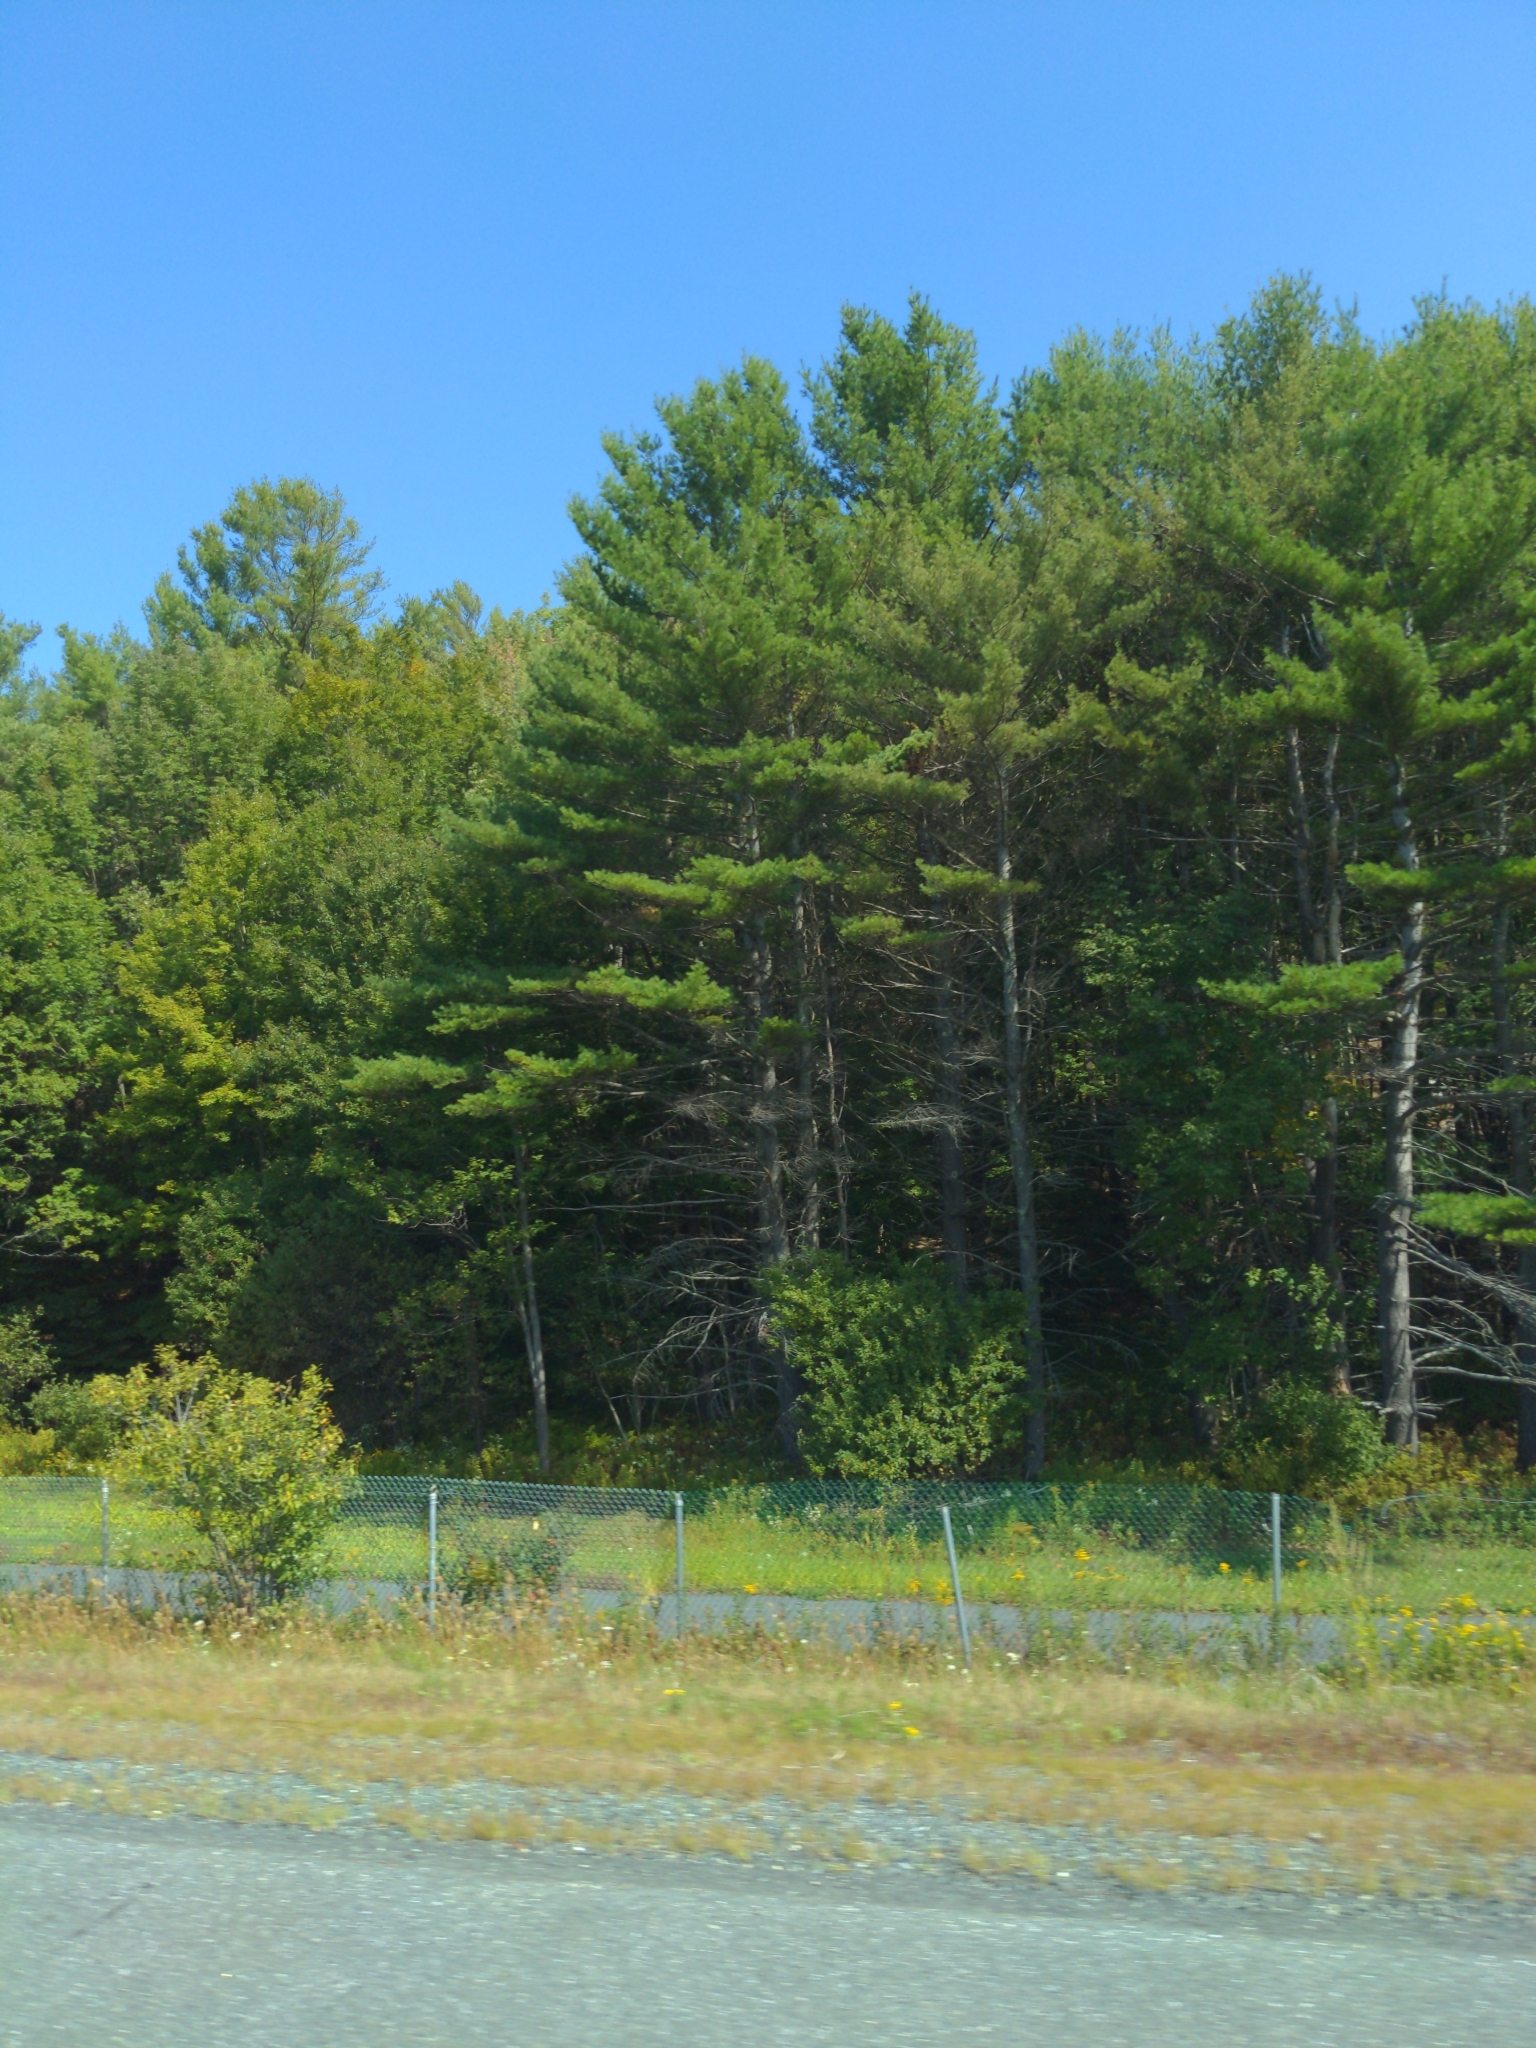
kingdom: Plantae
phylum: Tracheophyta
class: Pinopsida
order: Pinales
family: Pinaceae
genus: Pinus
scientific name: Pinus strobus
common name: Weymouth pine
